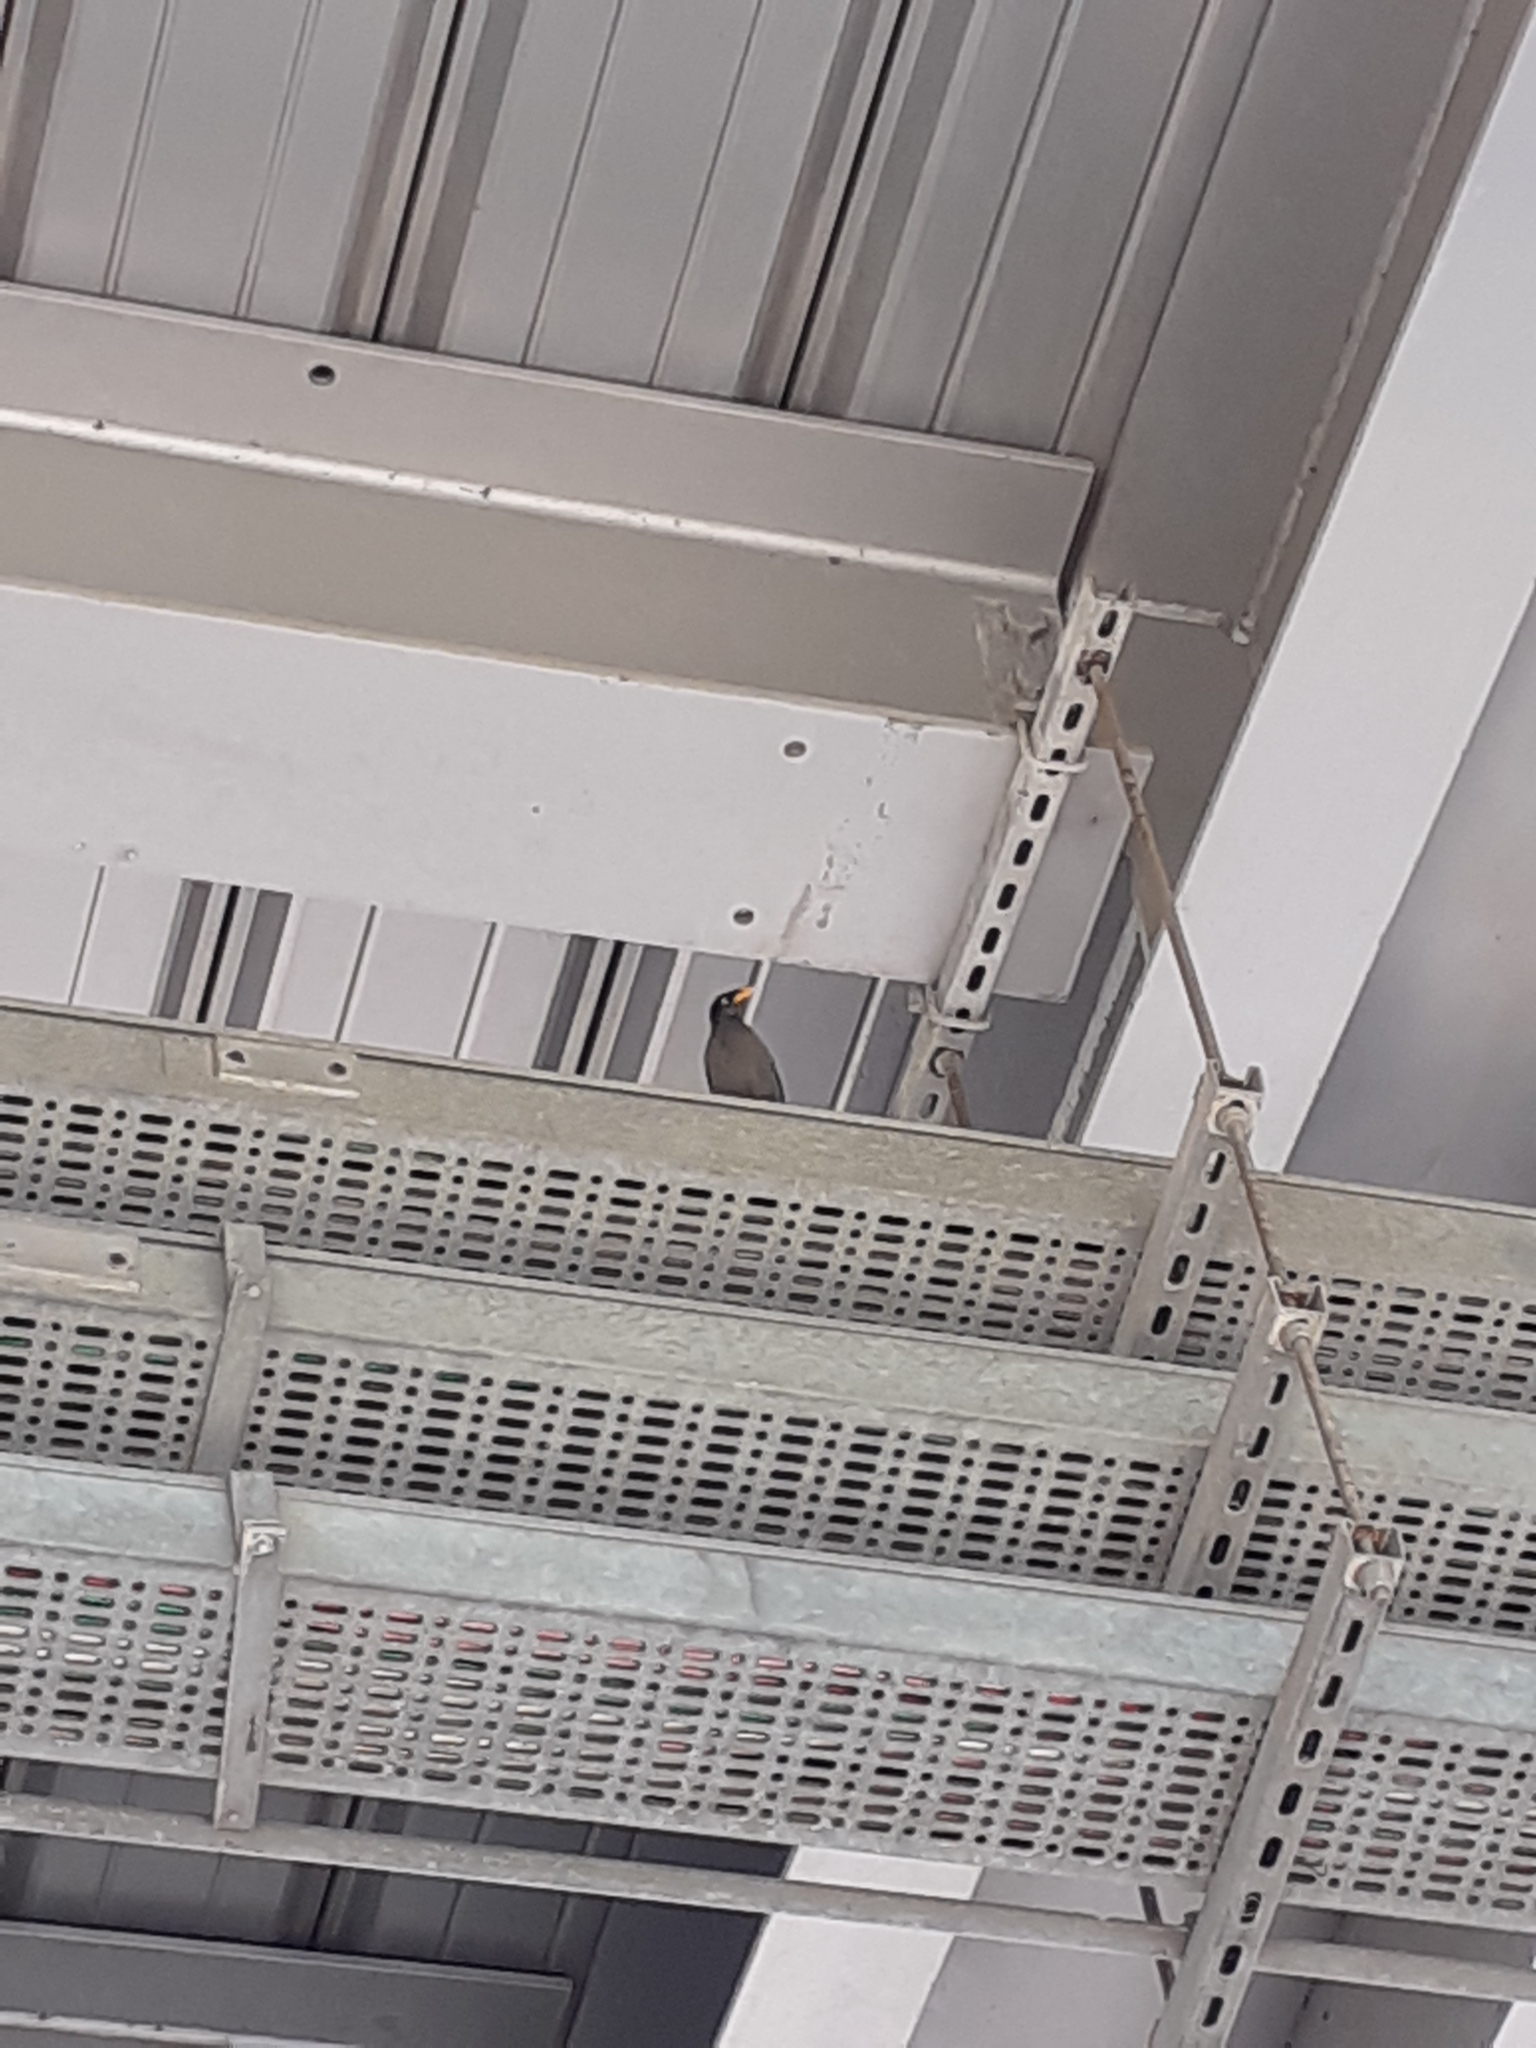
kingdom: Animalia
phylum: Chordata
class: Aves
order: Passeriformes
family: Sturnidae
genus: Acridotheres
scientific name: Acridotheres javanicus
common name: Javan myna
